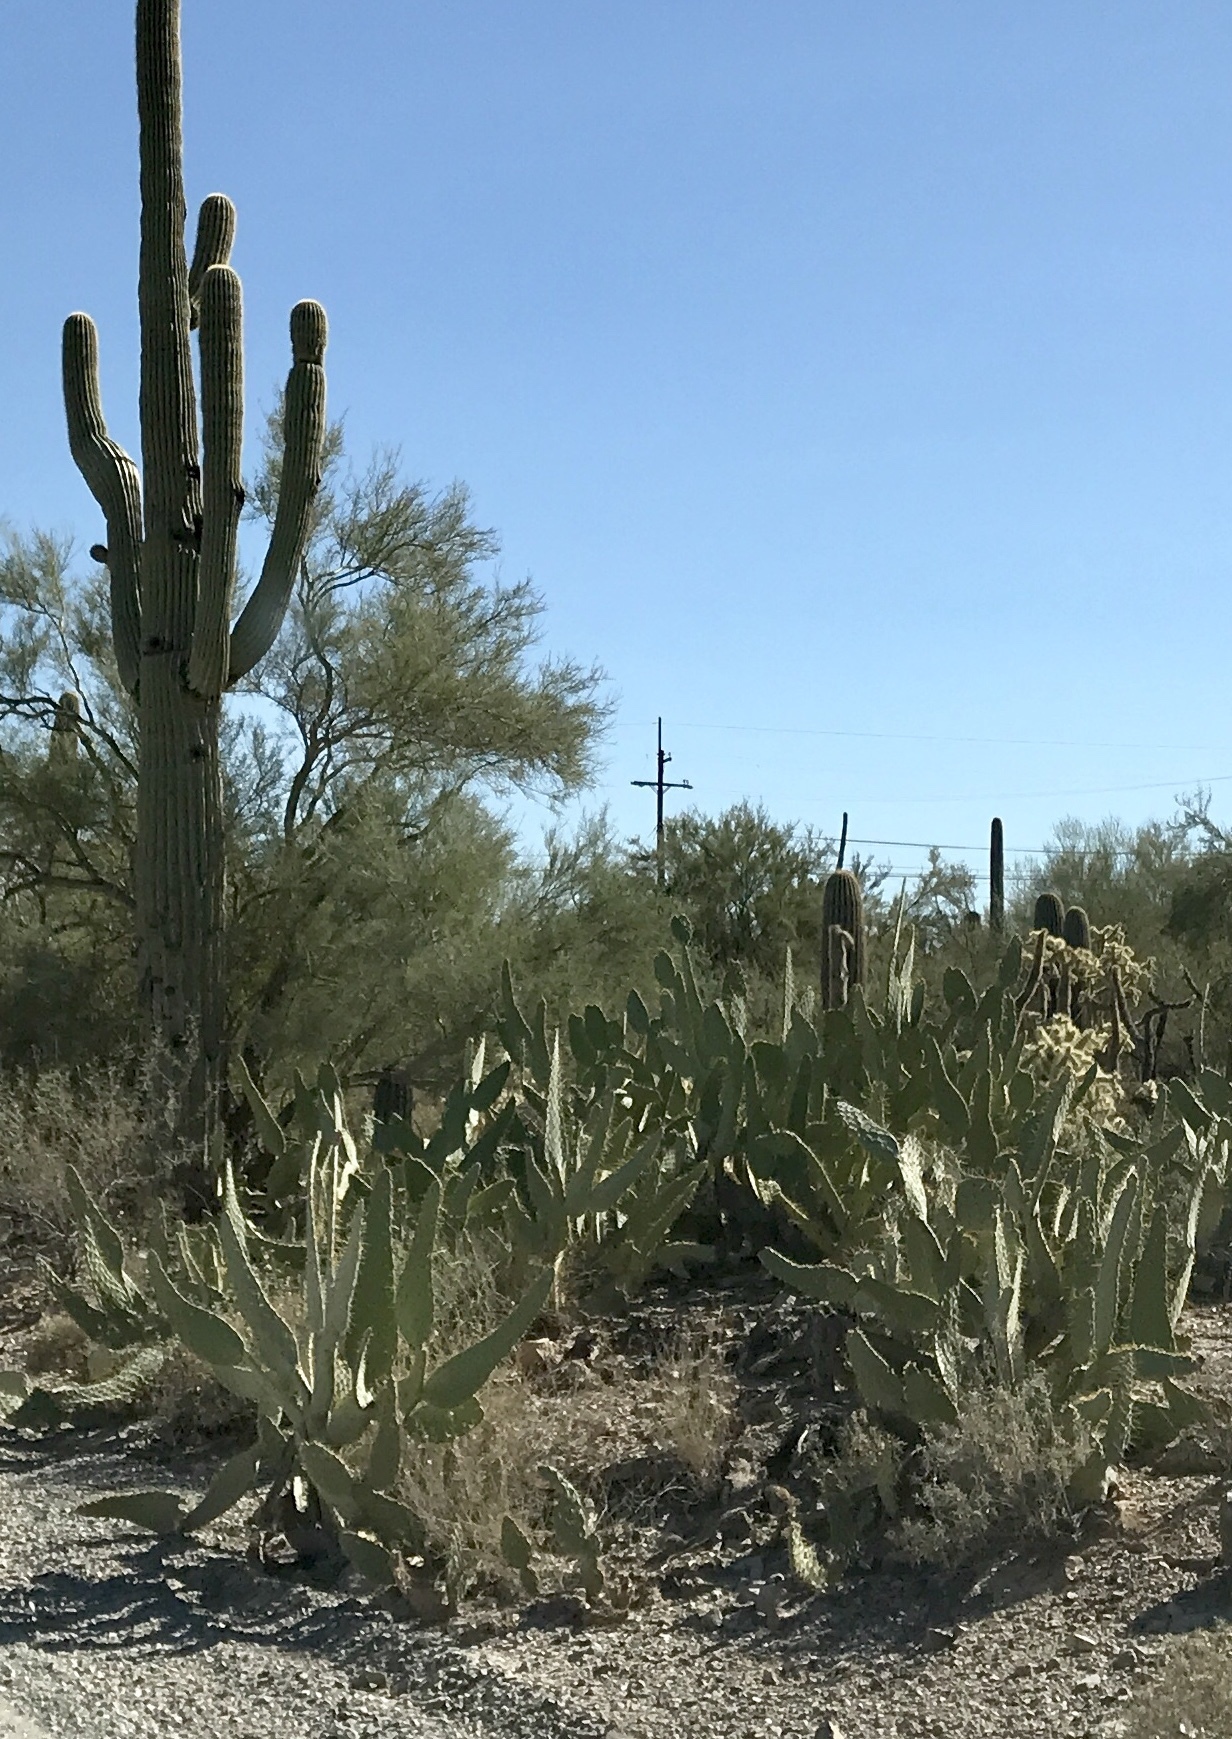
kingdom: Plantae
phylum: Tracheophyta
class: Magnoliopsida
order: Caryophyllales
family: Cactaceae
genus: Opuntia
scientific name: Opuntia engelmannii
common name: Cactus-apple
